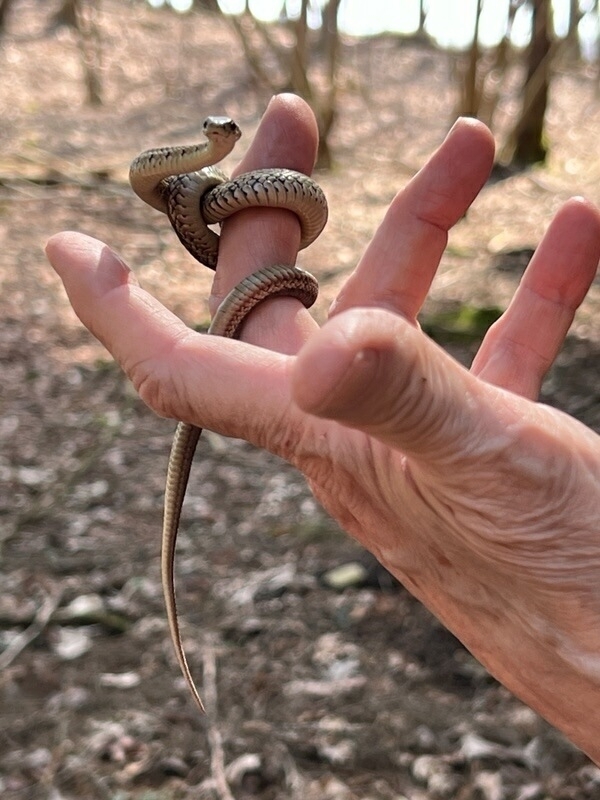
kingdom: Animalia
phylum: Chordata
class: Squamata
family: Colubridae
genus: Thamnophis
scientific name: Thamnophis sirtalis
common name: Common garter snake
